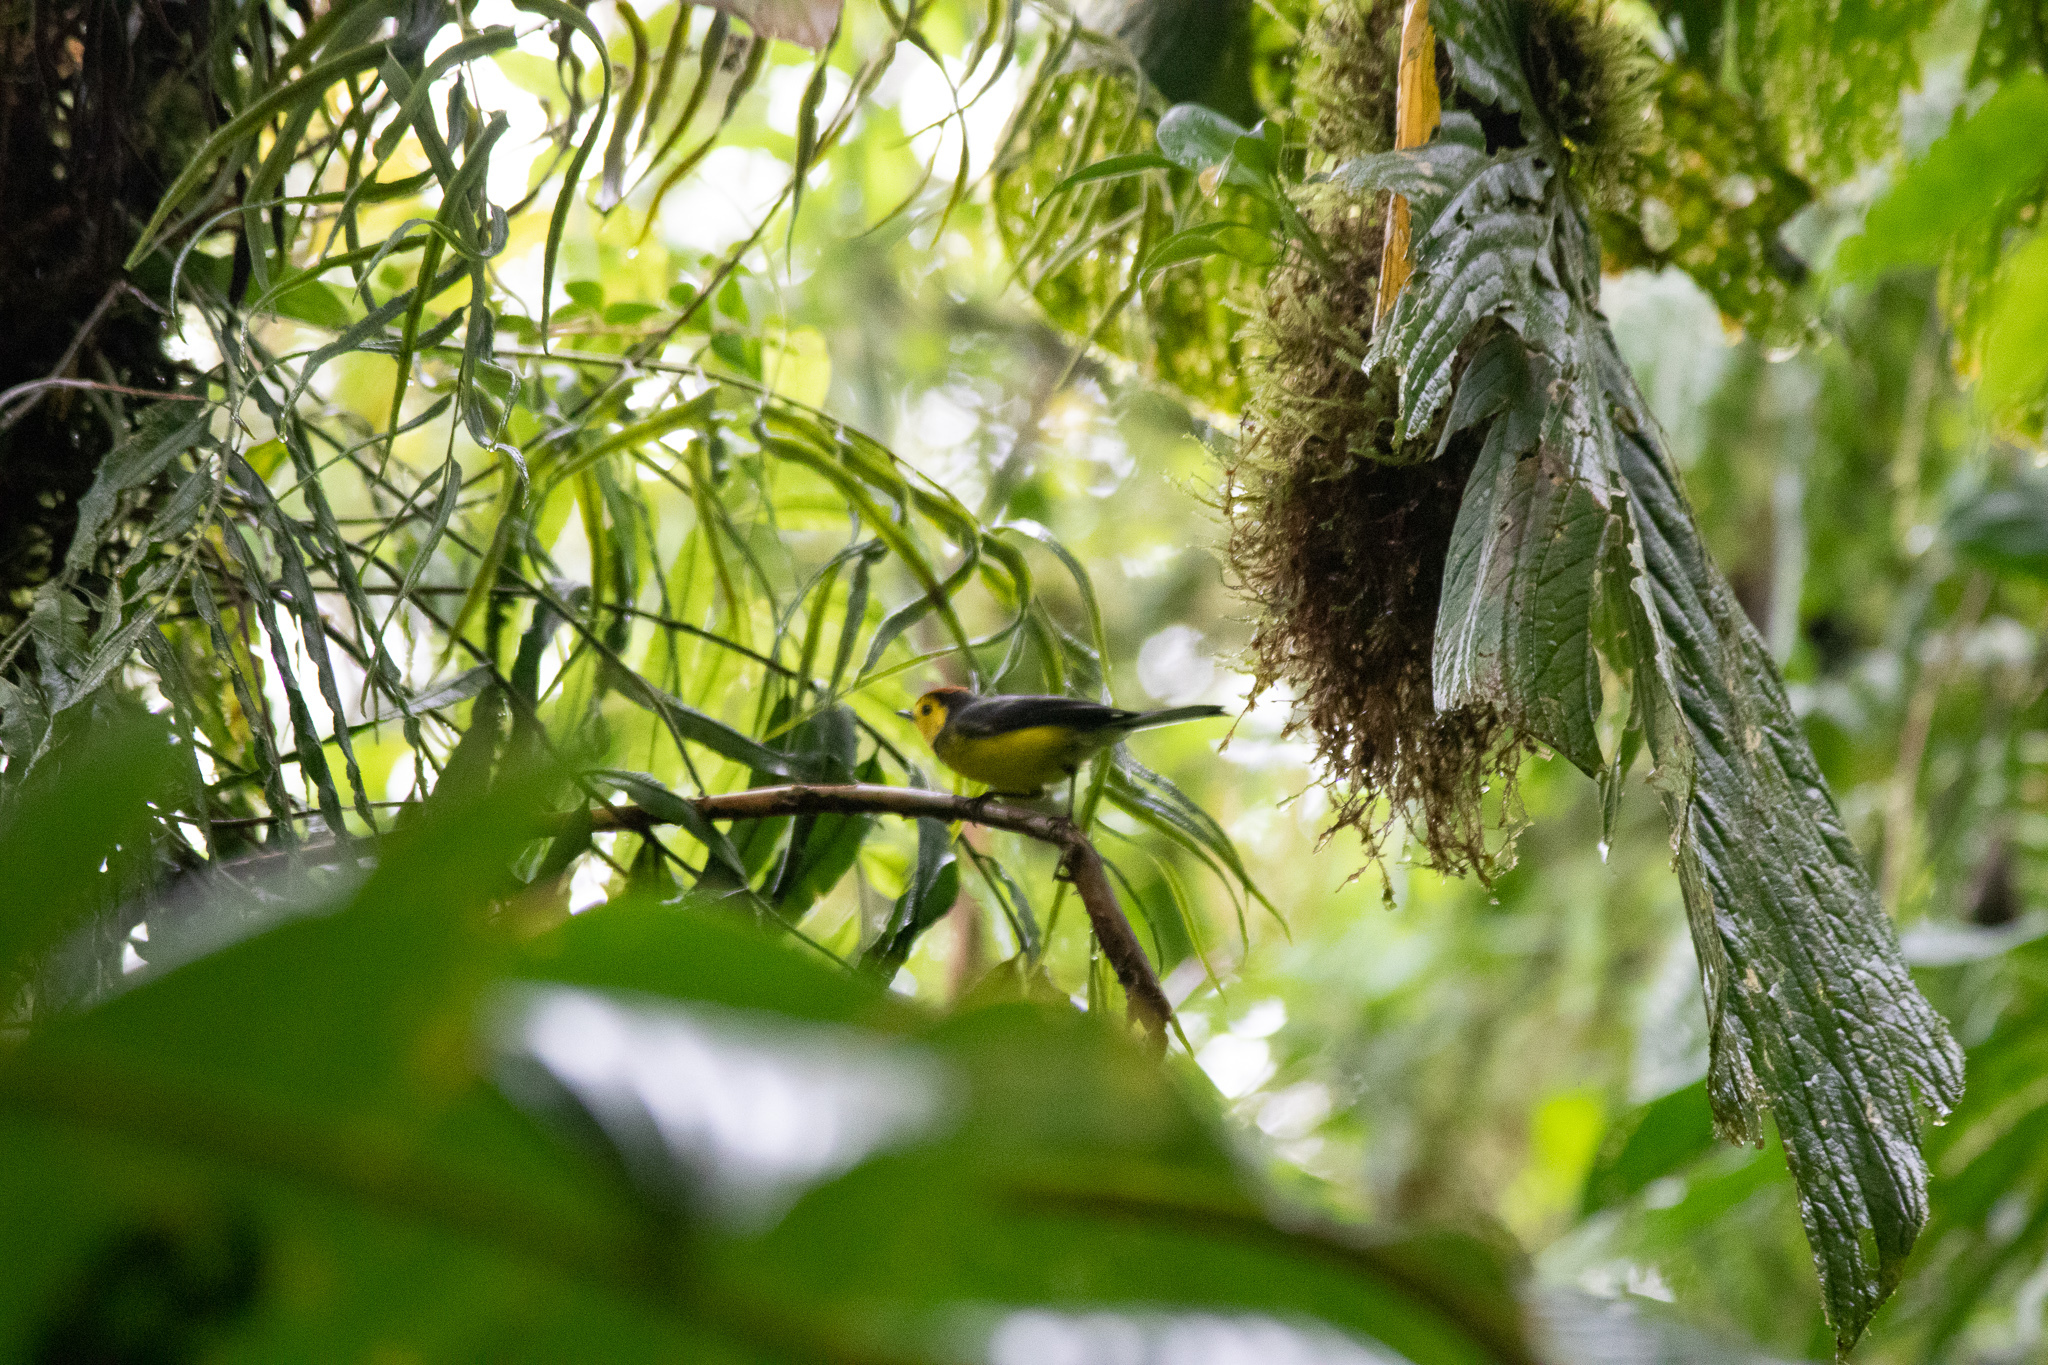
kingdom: Animalia
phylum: Chordata
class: Aves
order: Passeriformes
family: Parulidae
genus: Myioborus
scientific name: Myioborus torquatus
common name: Collared whitestart
